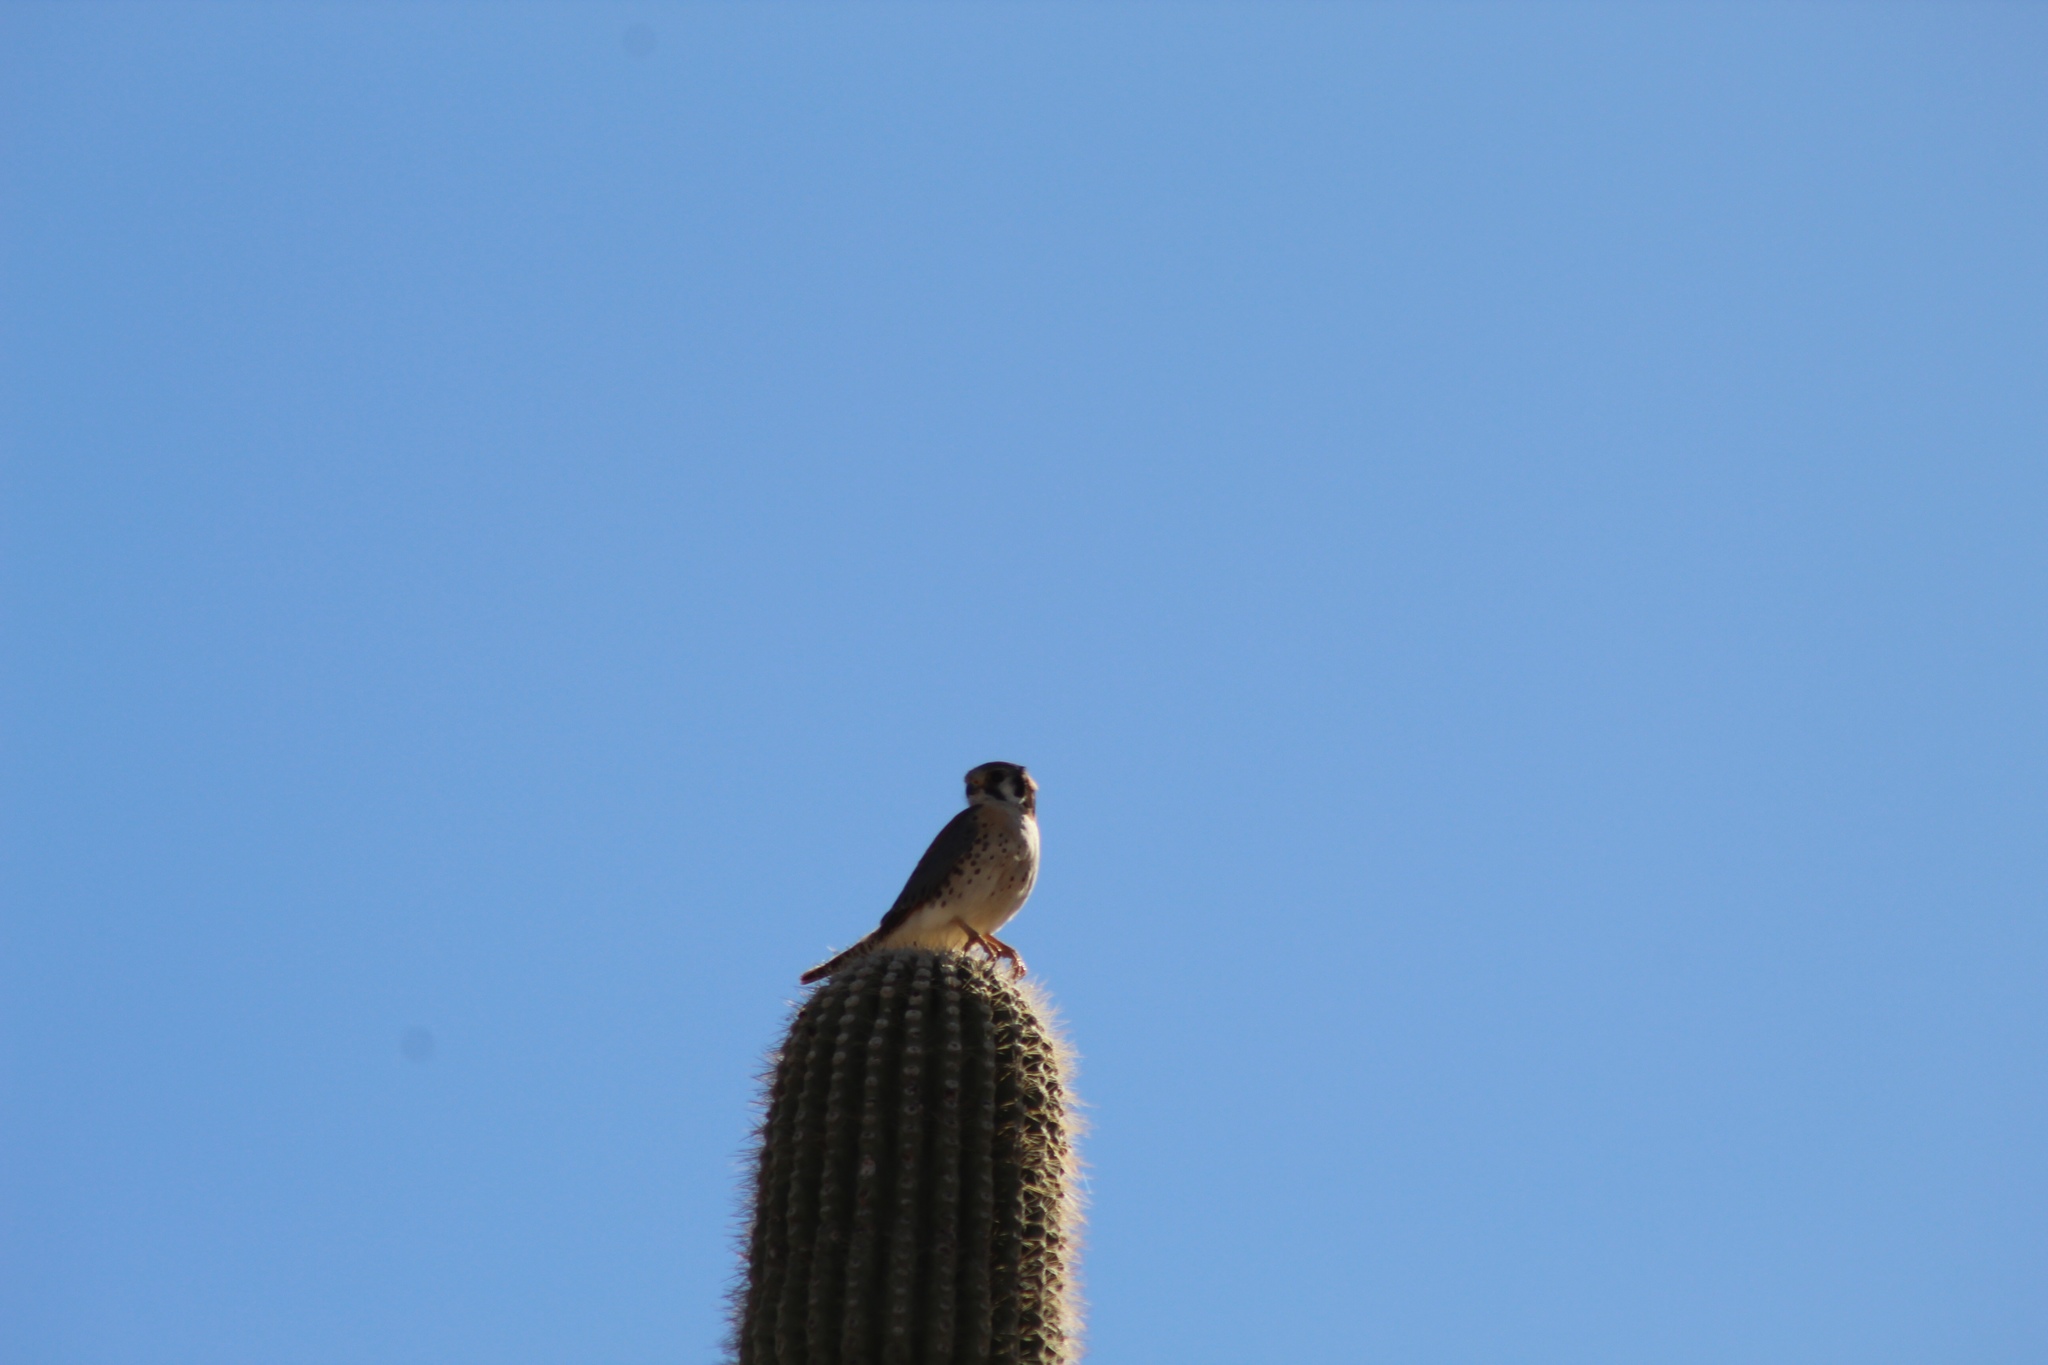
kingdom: Animalia
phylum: Chordata
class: Aves
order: Falconiformes
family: Falconidae
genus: Falco
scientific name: Falco sparverius
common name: American kestrel
